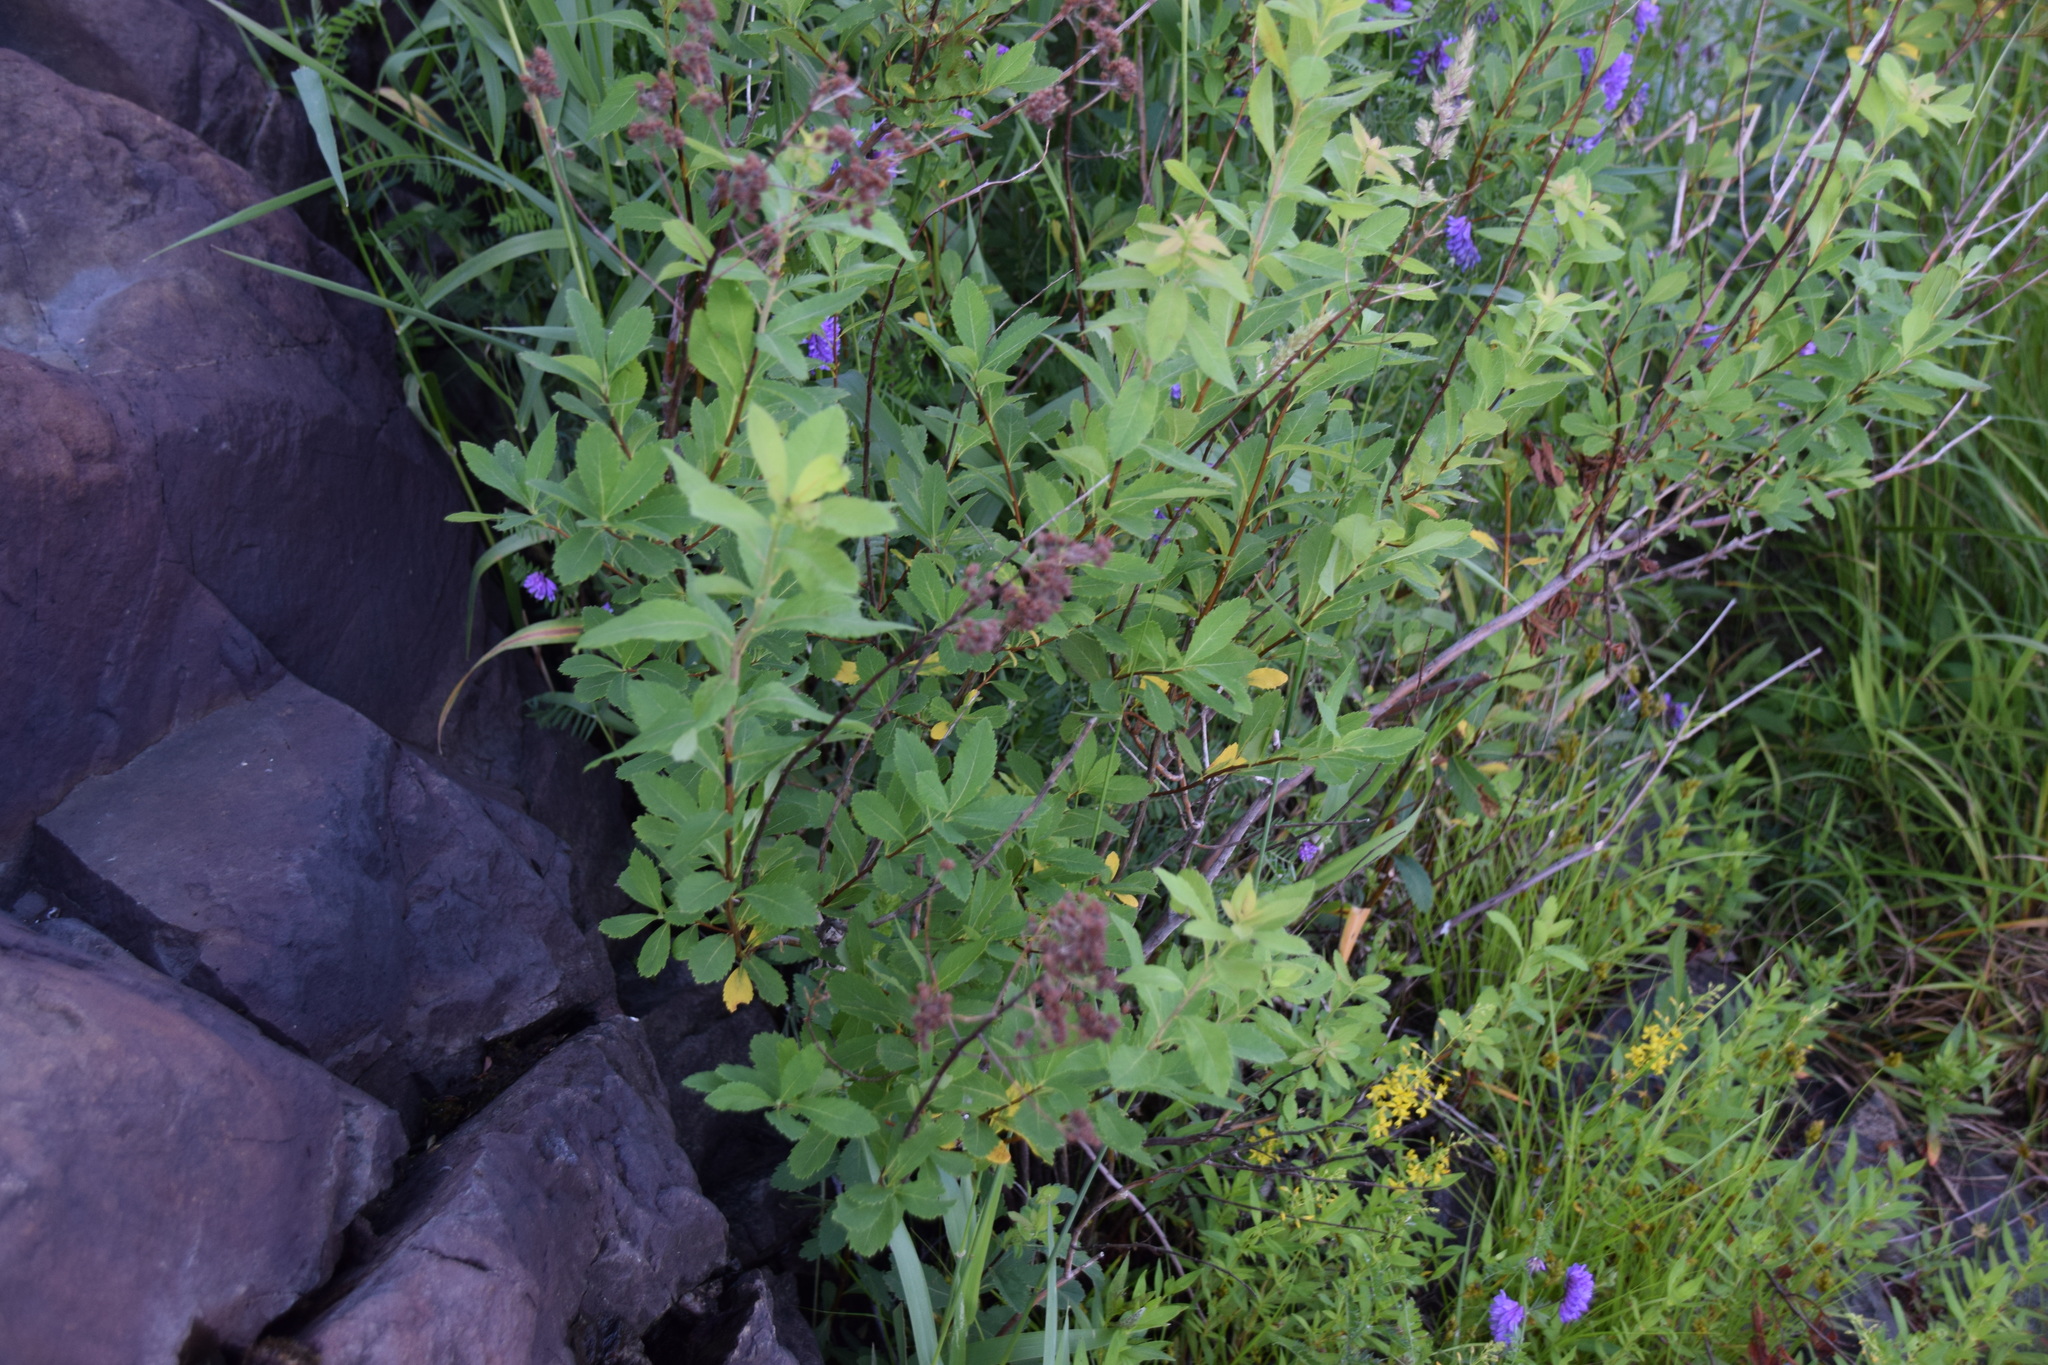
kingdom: Plantae
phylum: Tracheophyta
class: Magnoliopsida
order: Rosales
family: Rosaceae
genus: Spiraea
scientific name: Spiraea alba
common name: Pale bridewort
